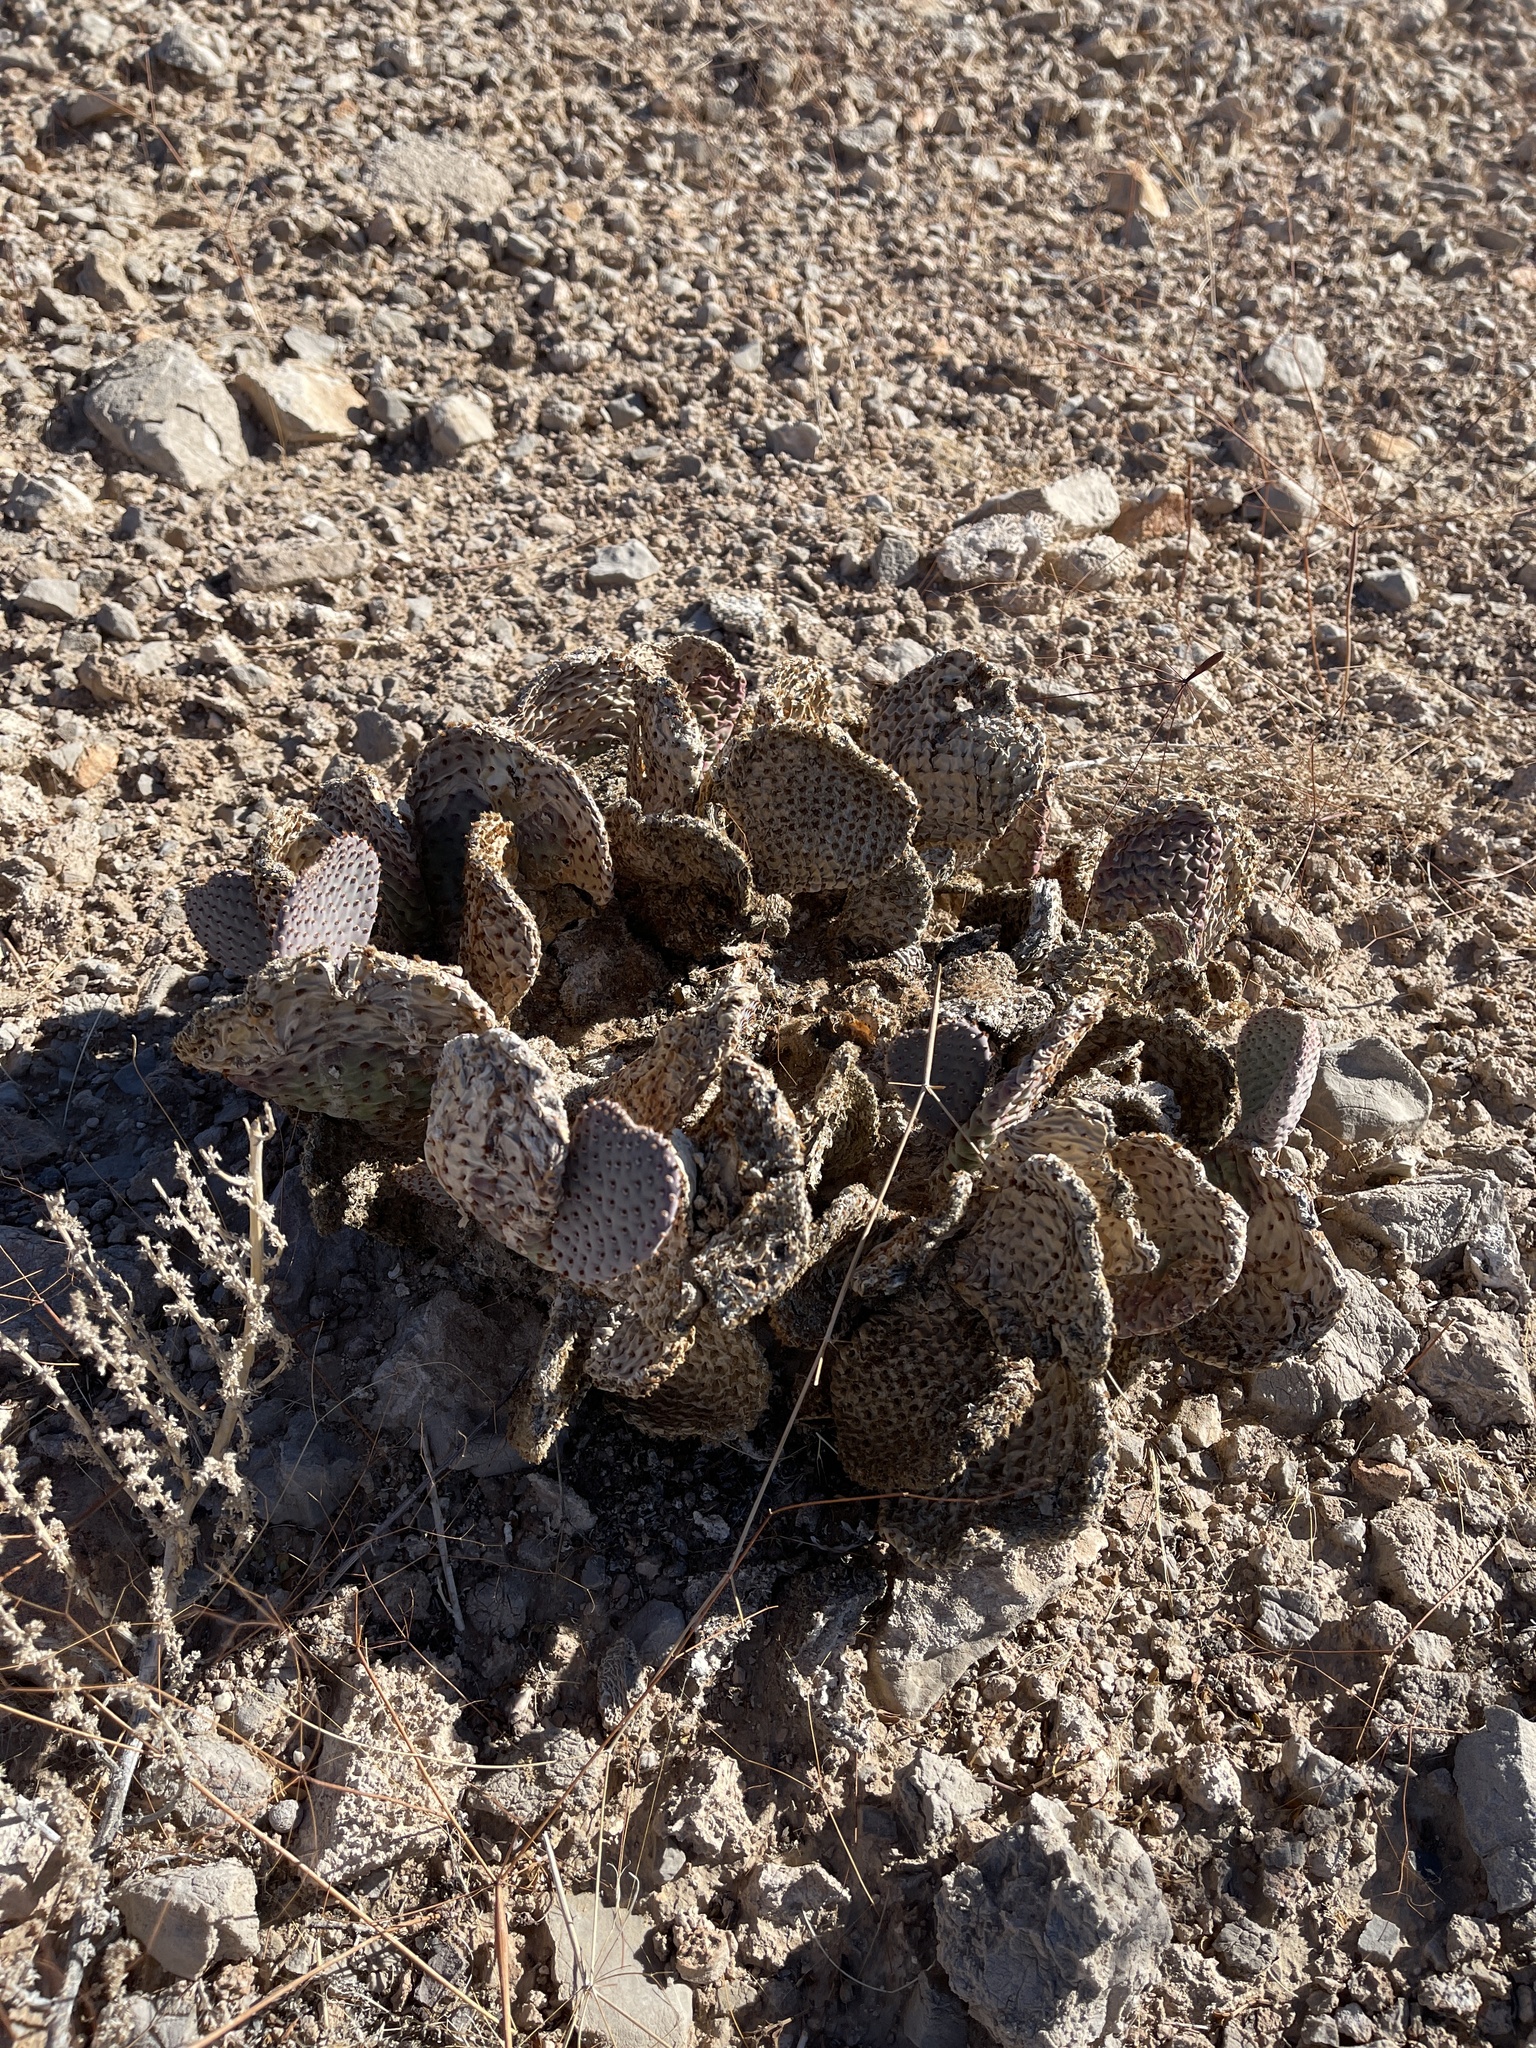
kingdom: Plantae
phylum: Tracheophyta
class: Magnoliopsida
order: Caryophyllales
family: Cactaceae
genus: Opuntia
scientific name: Opuntia basilaris
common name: Beavertail prickly-pear
